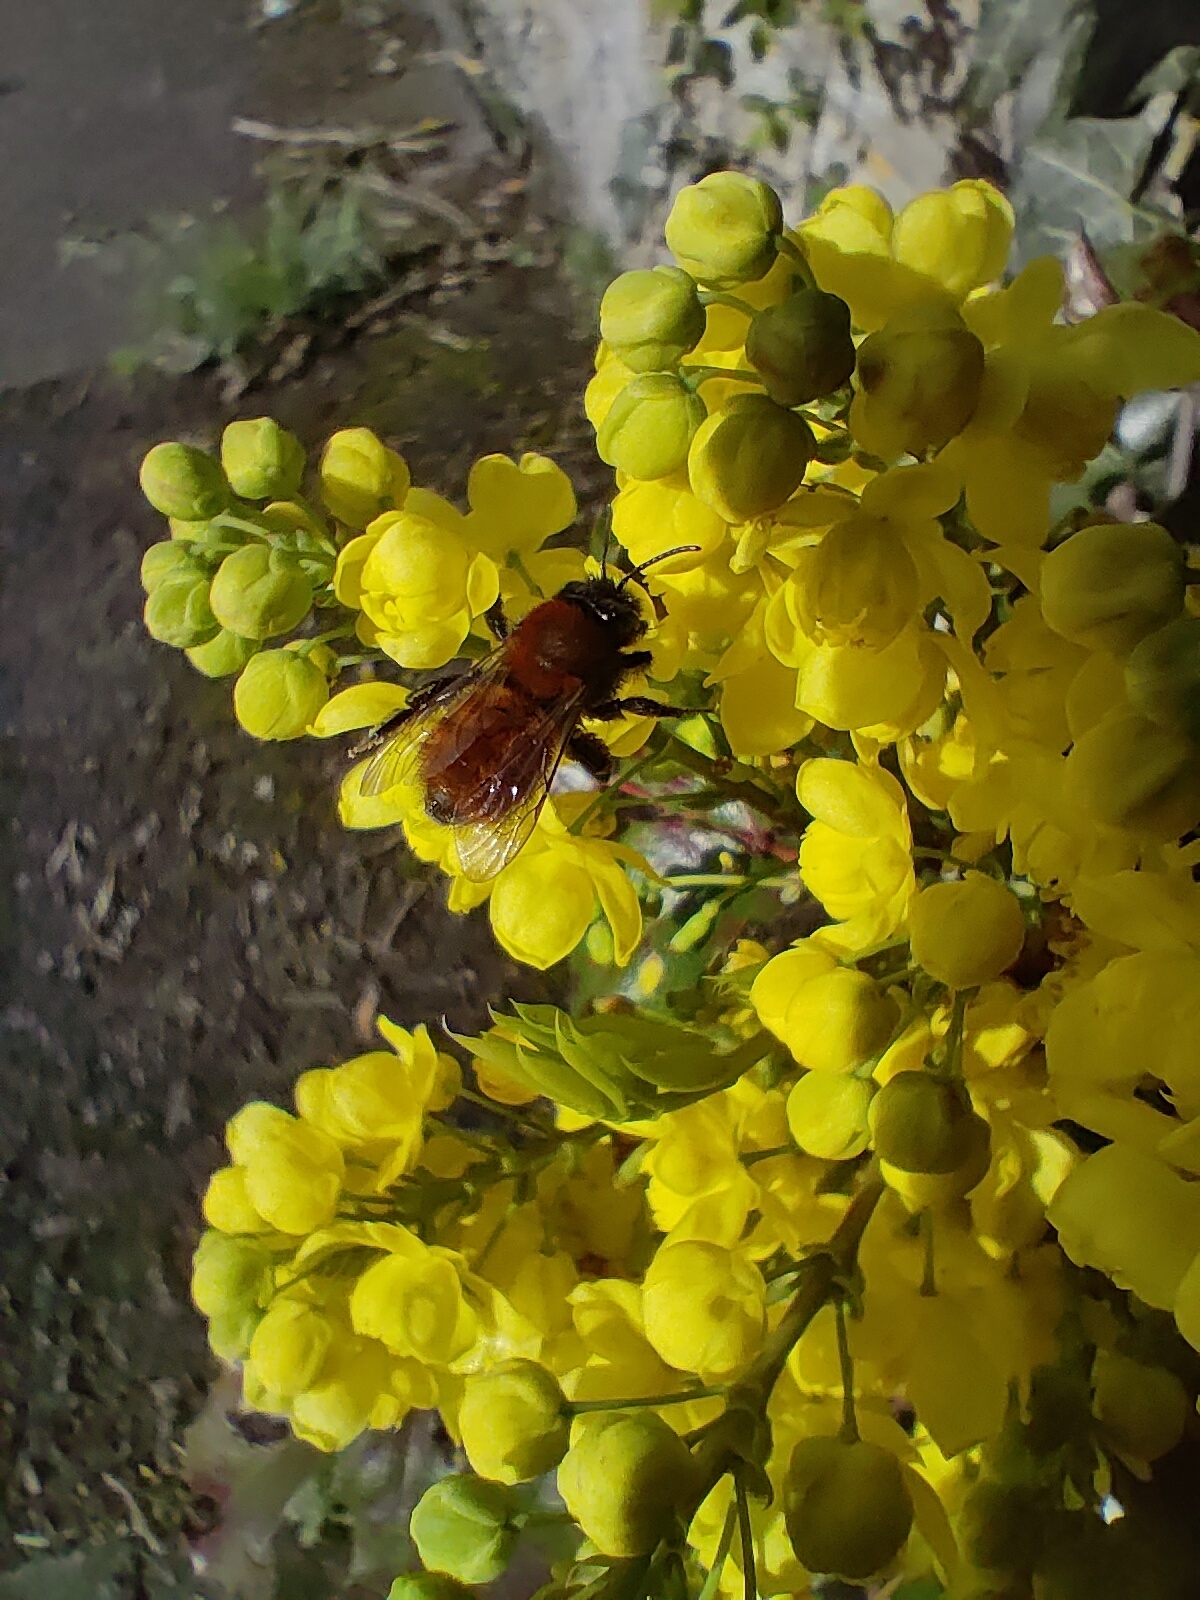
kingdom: Animalia
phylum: Arthropoda
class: Insecta
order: Hymenoptera
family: Andrenidae
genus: Andrena
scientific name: Andrena fulva
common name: Tawny mining bee
